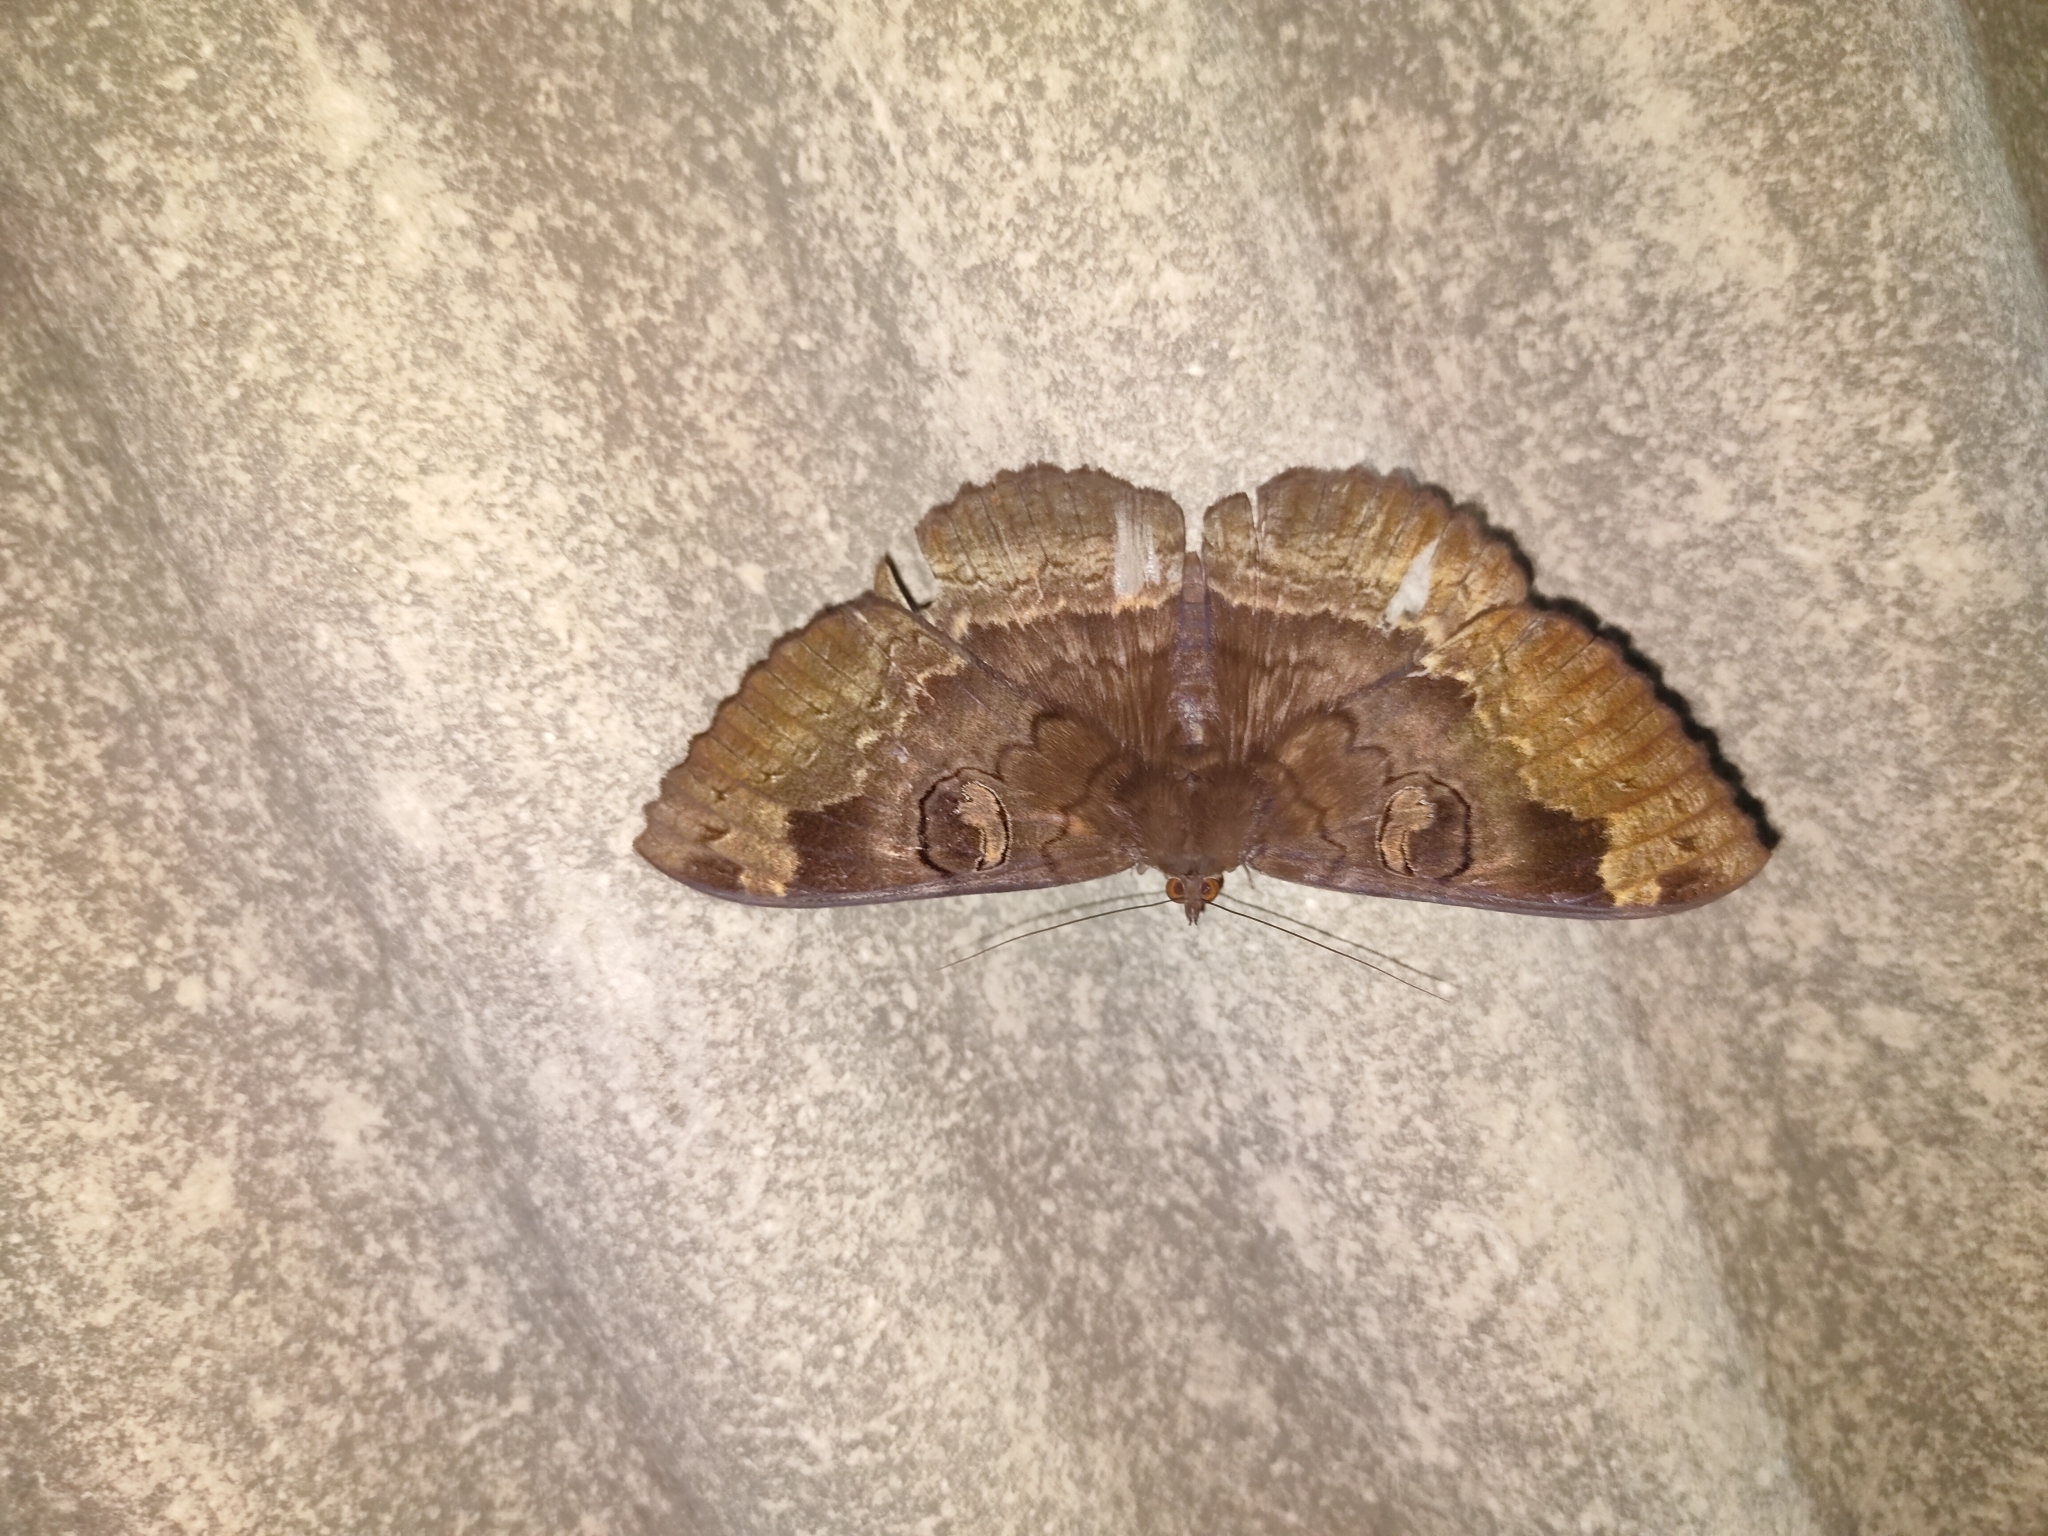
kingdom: Animalia
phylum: Arthropoda
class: Insecta
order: Lepidoptera
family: Erebidae
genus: Erebus
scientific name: Erebus caprimulgus
